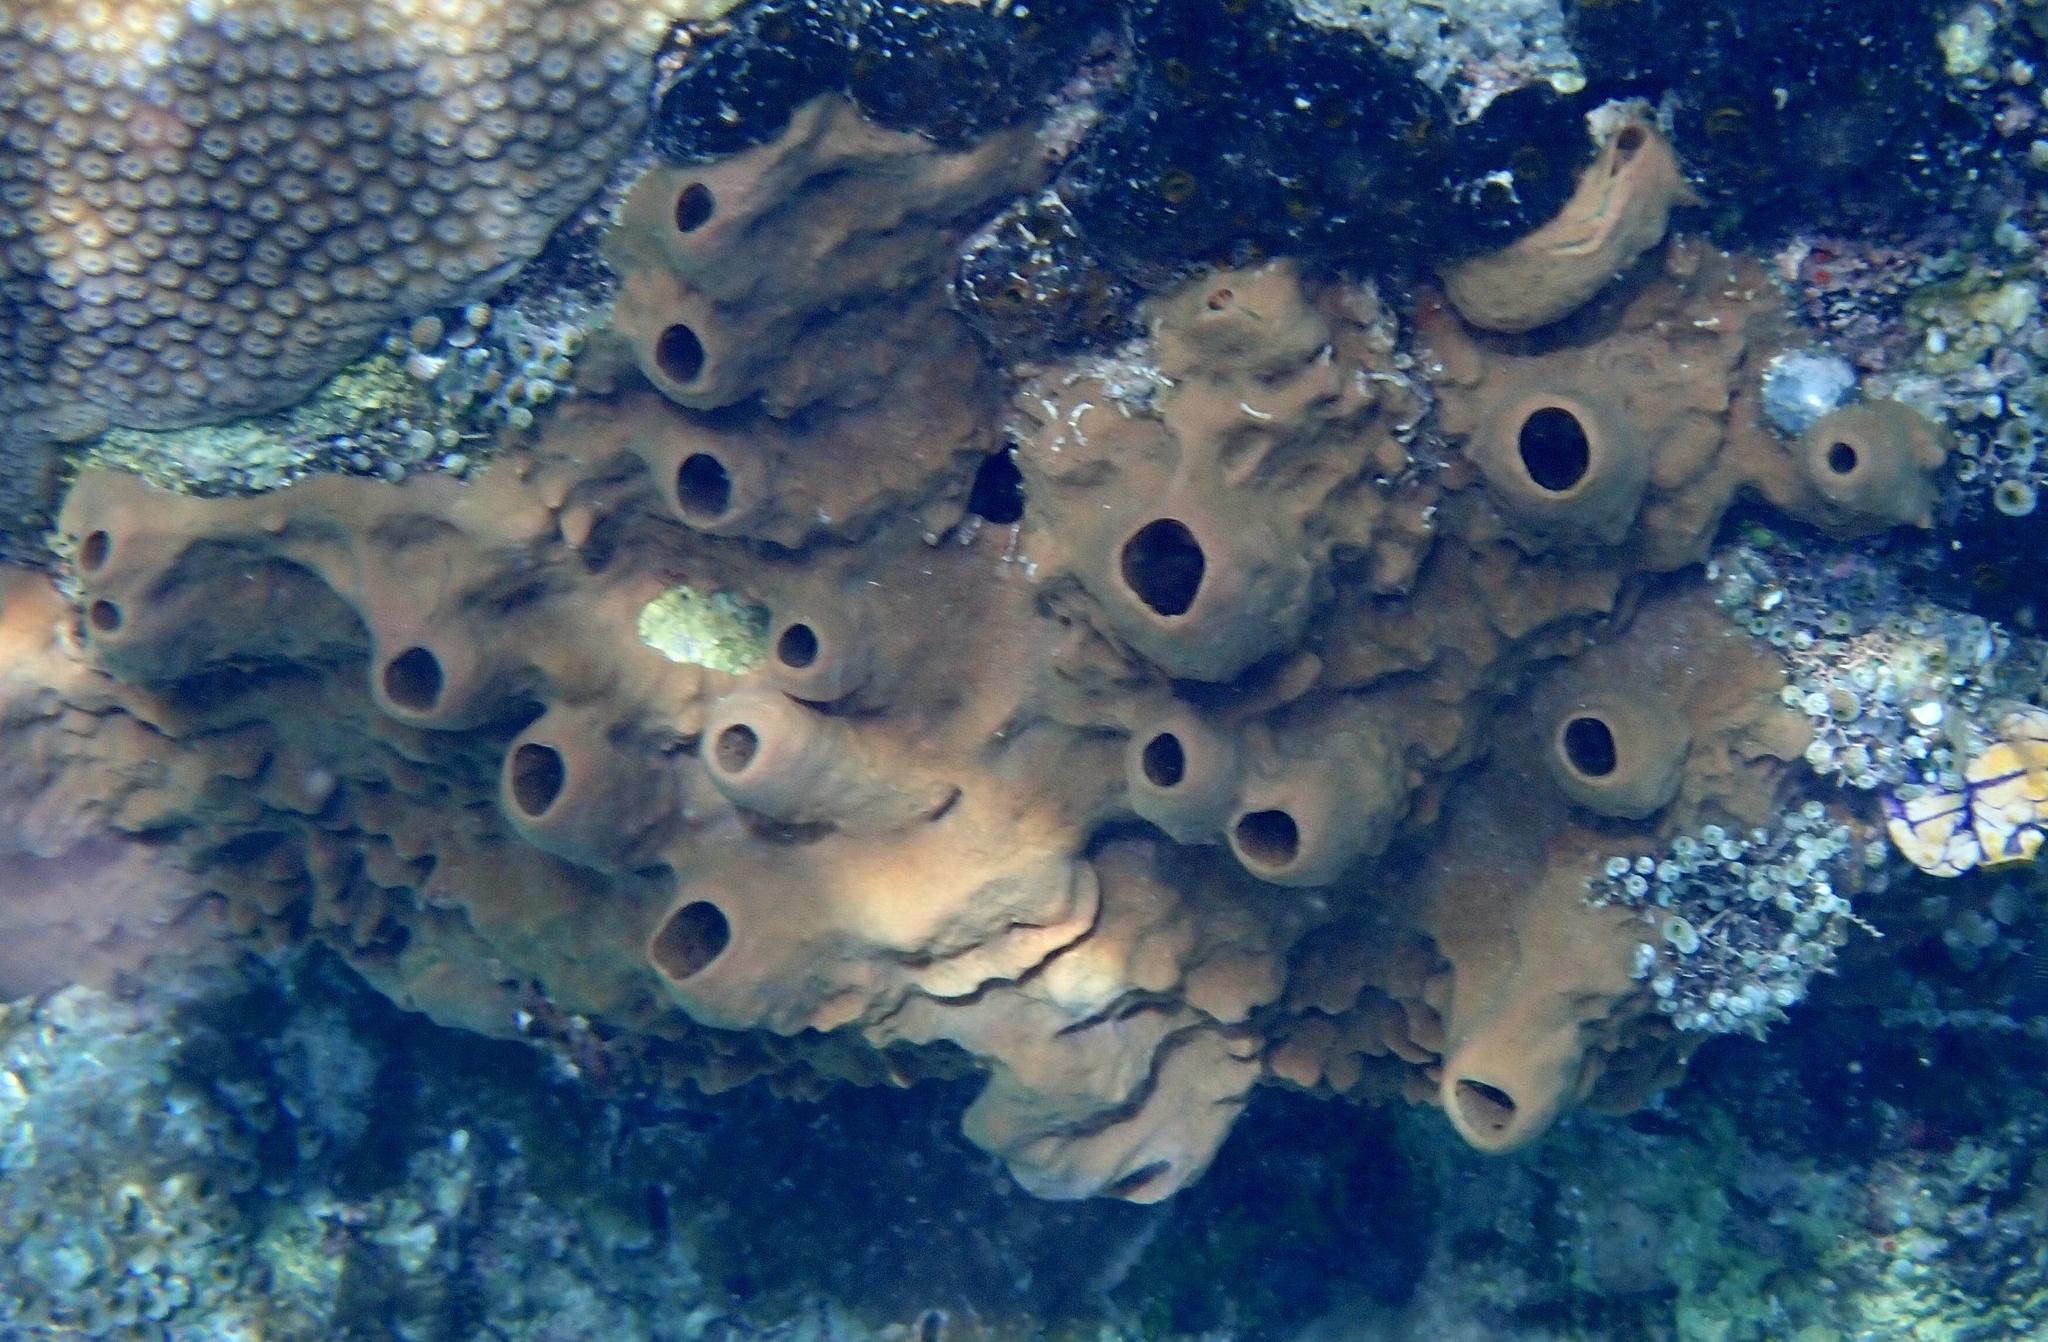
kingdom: Animalia
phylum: Porifera
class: Demospongiae
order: Haplosclerida
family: Petrosiidae
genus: Petrosia
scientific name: Petrosia plana
